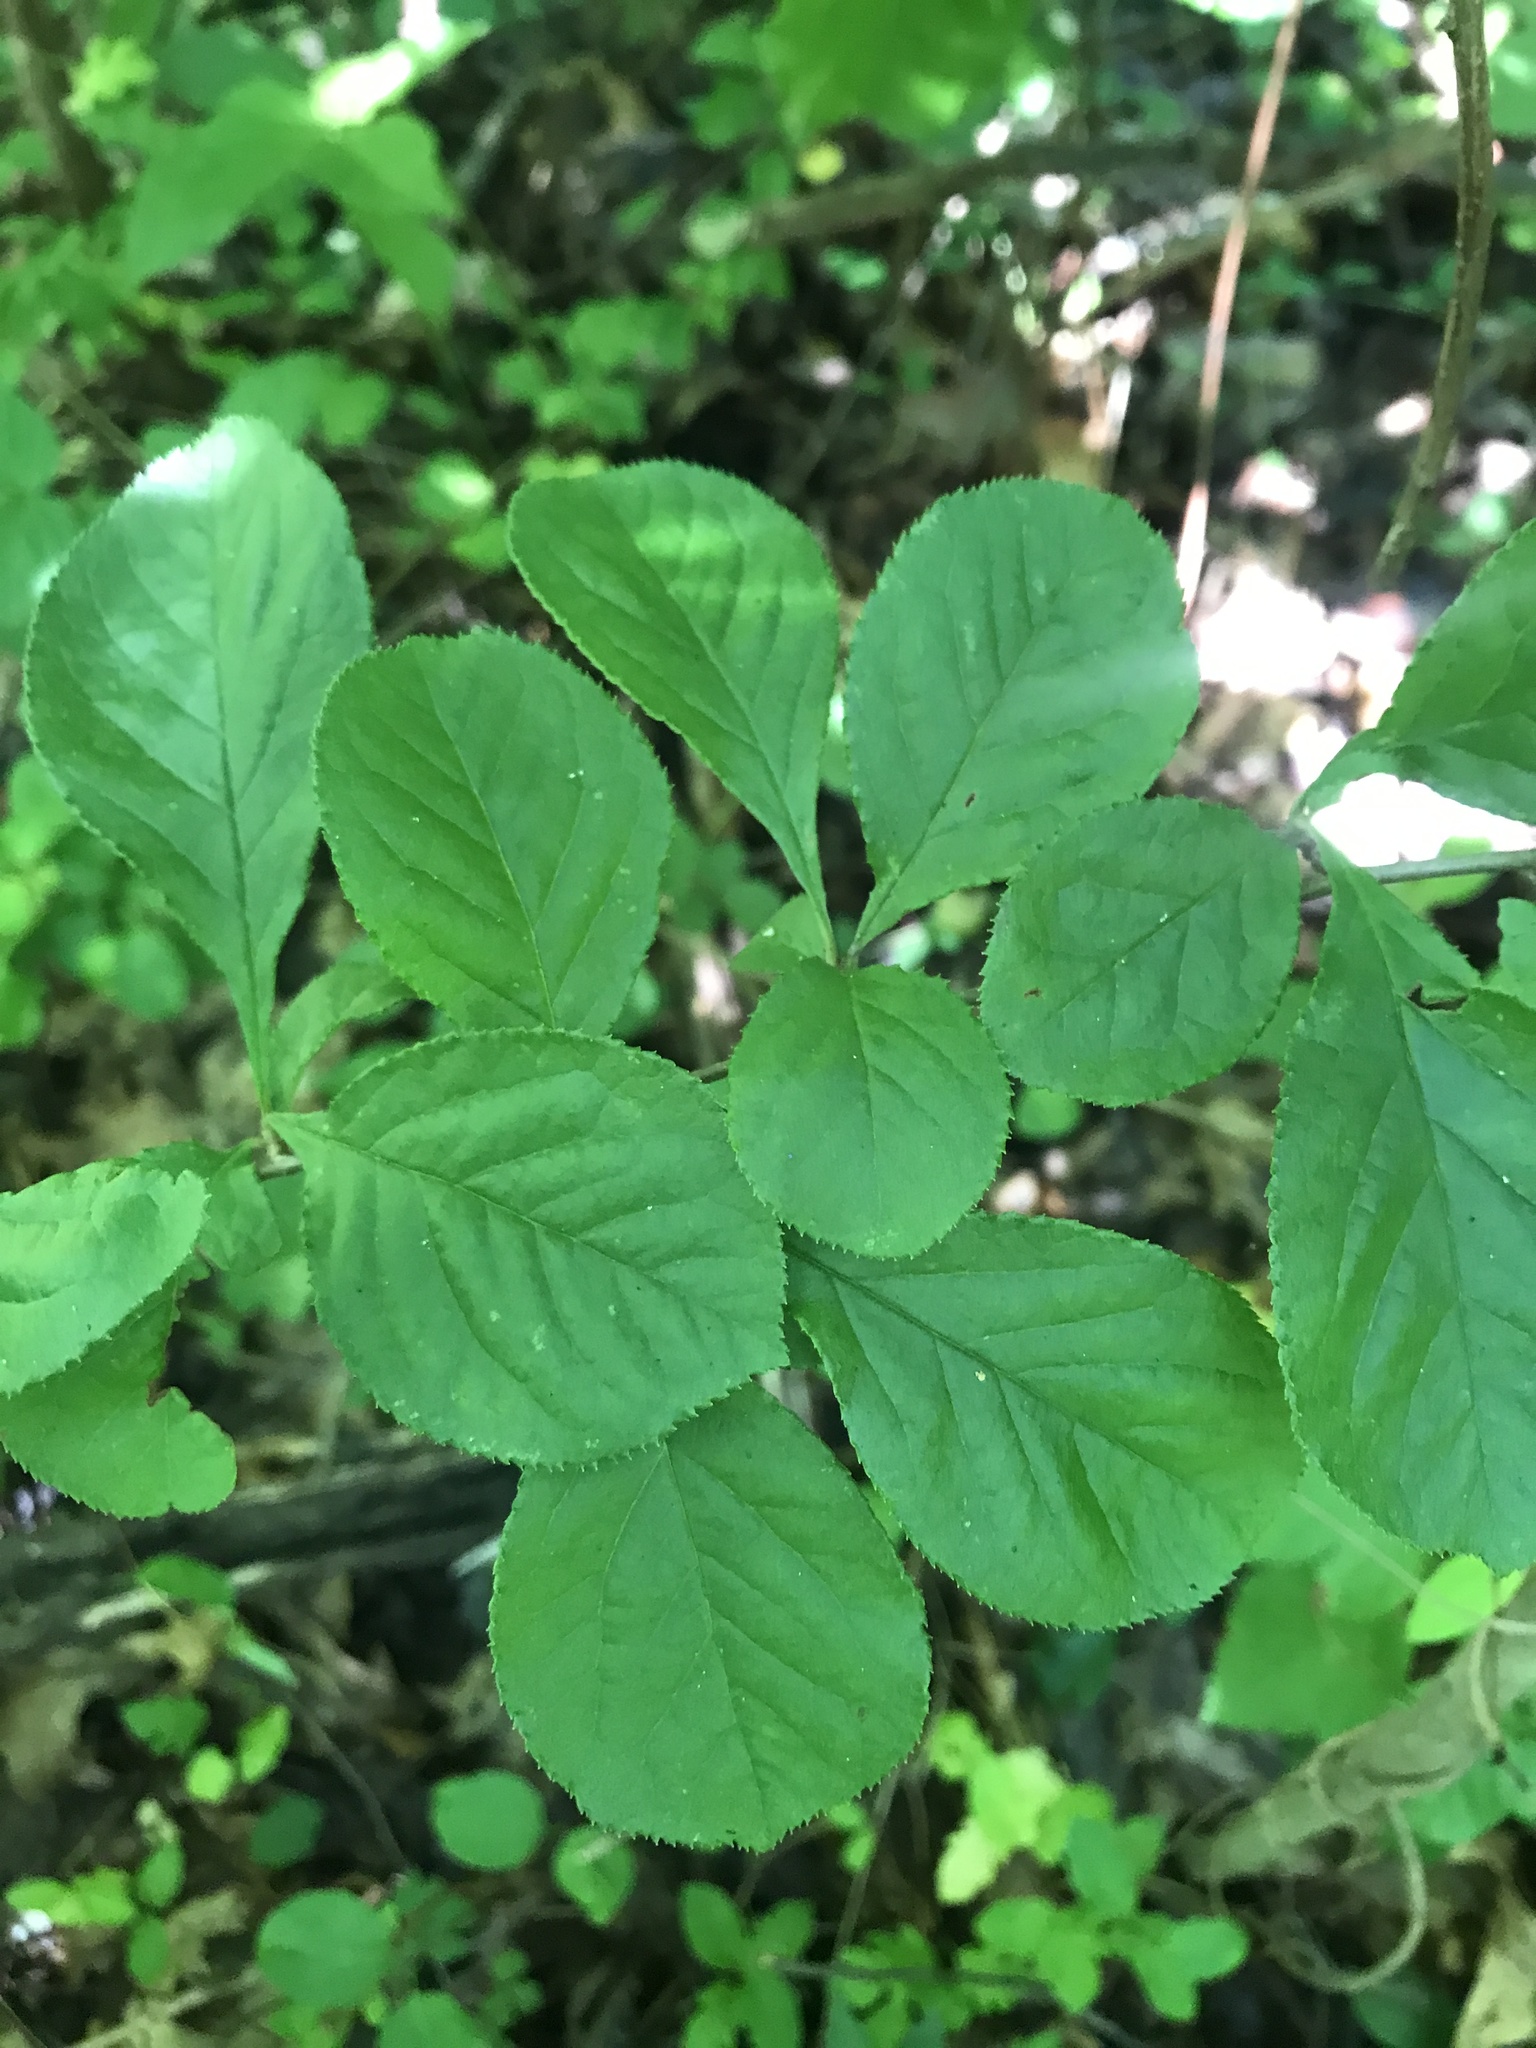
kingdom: Plantae
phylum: Tracheophyta
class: Magnoliopsida
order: Rosales
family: Rosaceae
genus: Pourthiaea
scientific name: Pourthiaea villosa
